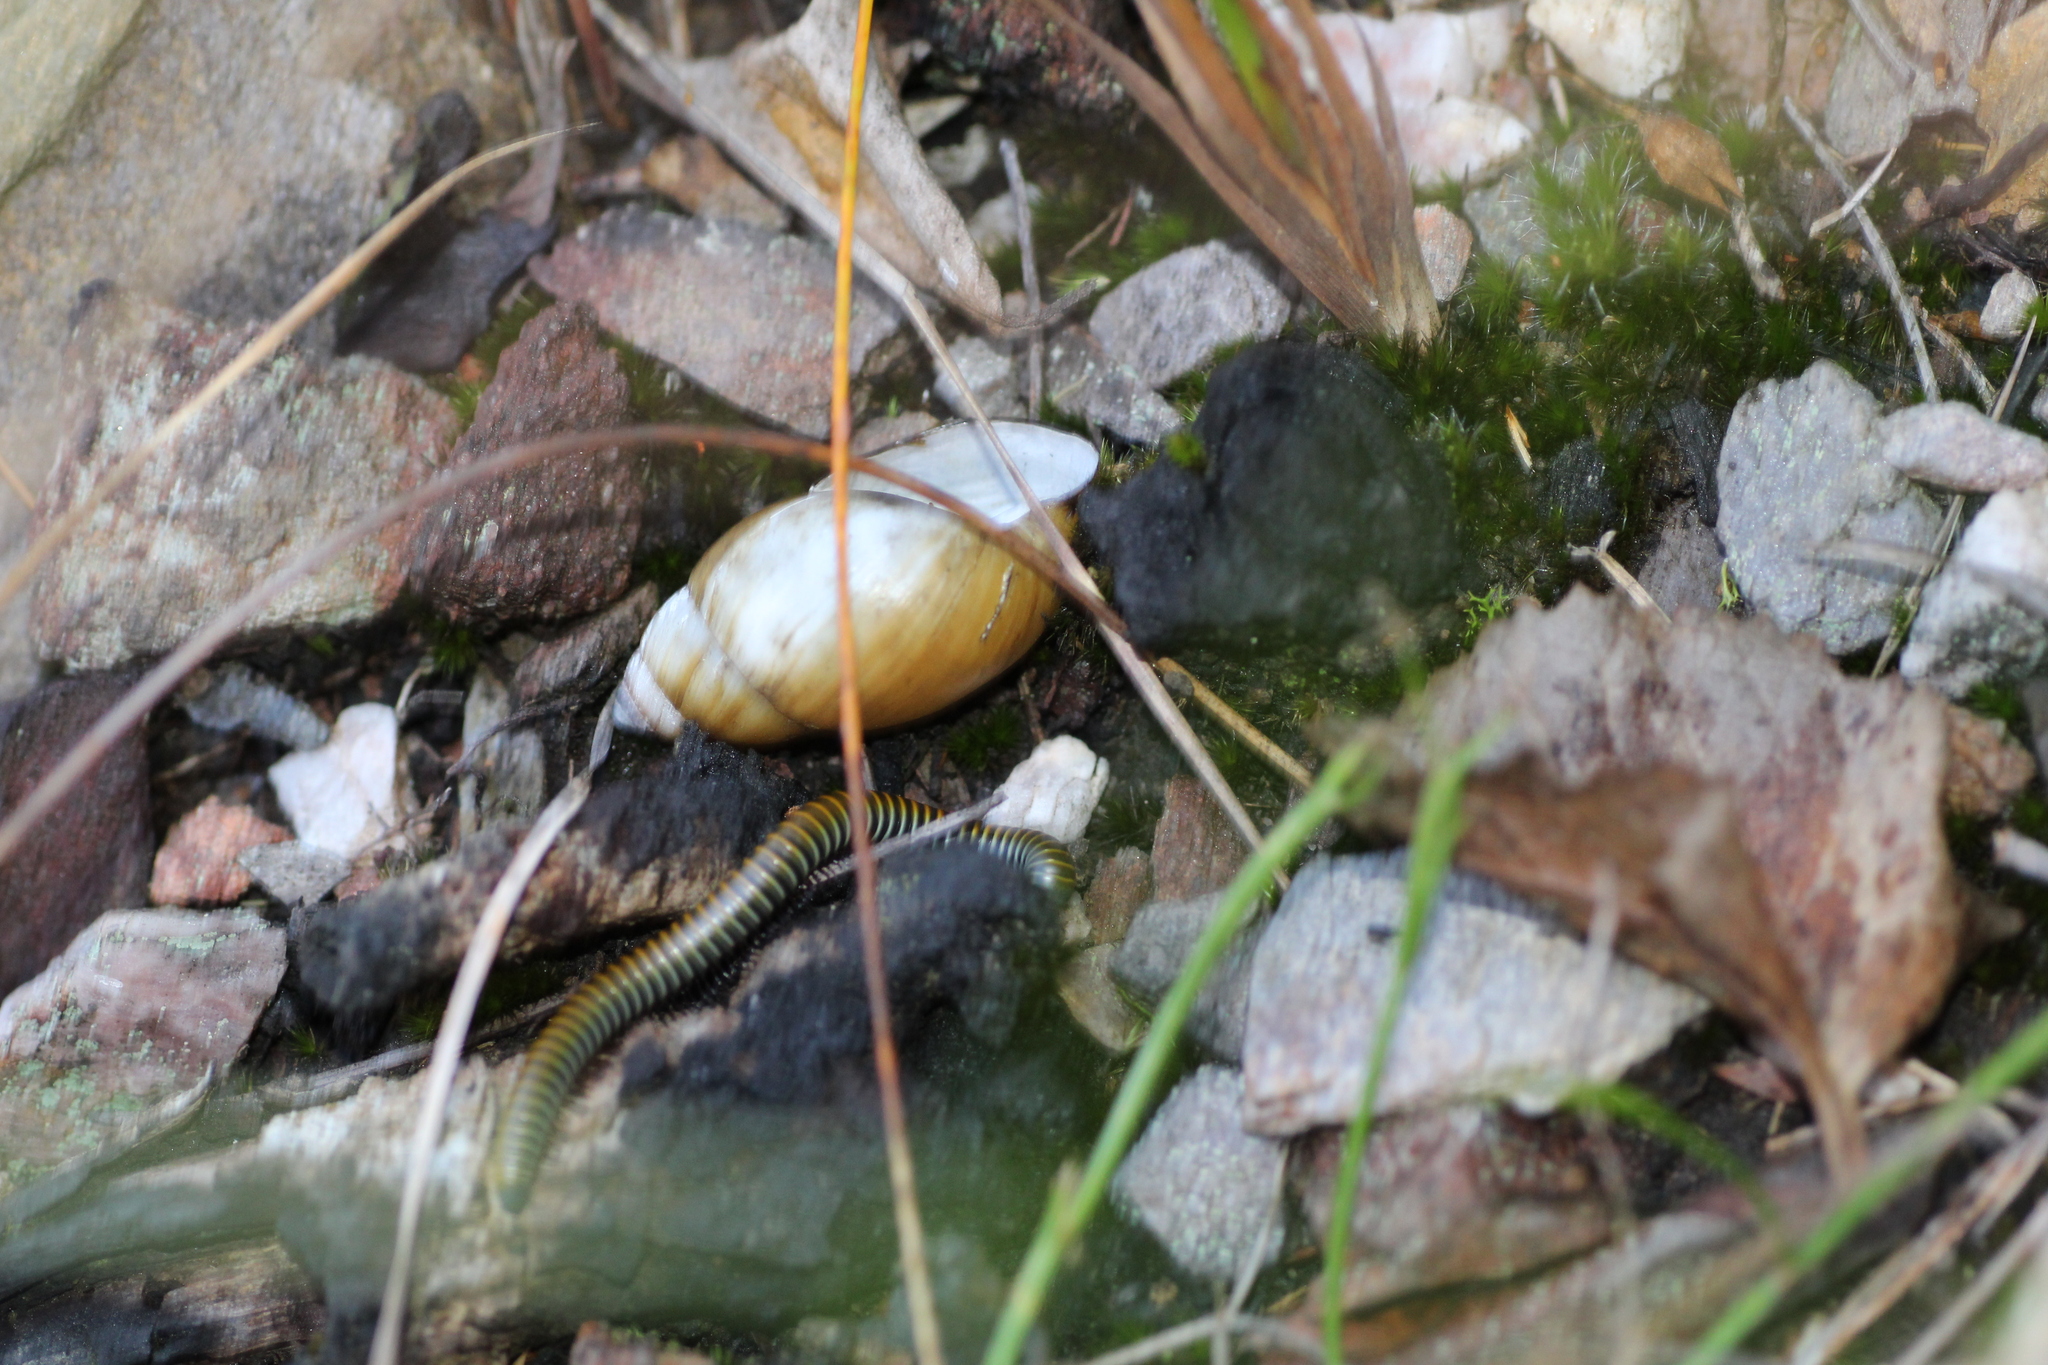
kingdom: Animalia
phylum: Mollusca
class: Gastropoda
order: Stylommatophora
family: Bothriembryontidae
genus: Bothriembryon
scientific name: Bothriembryon glauerti
